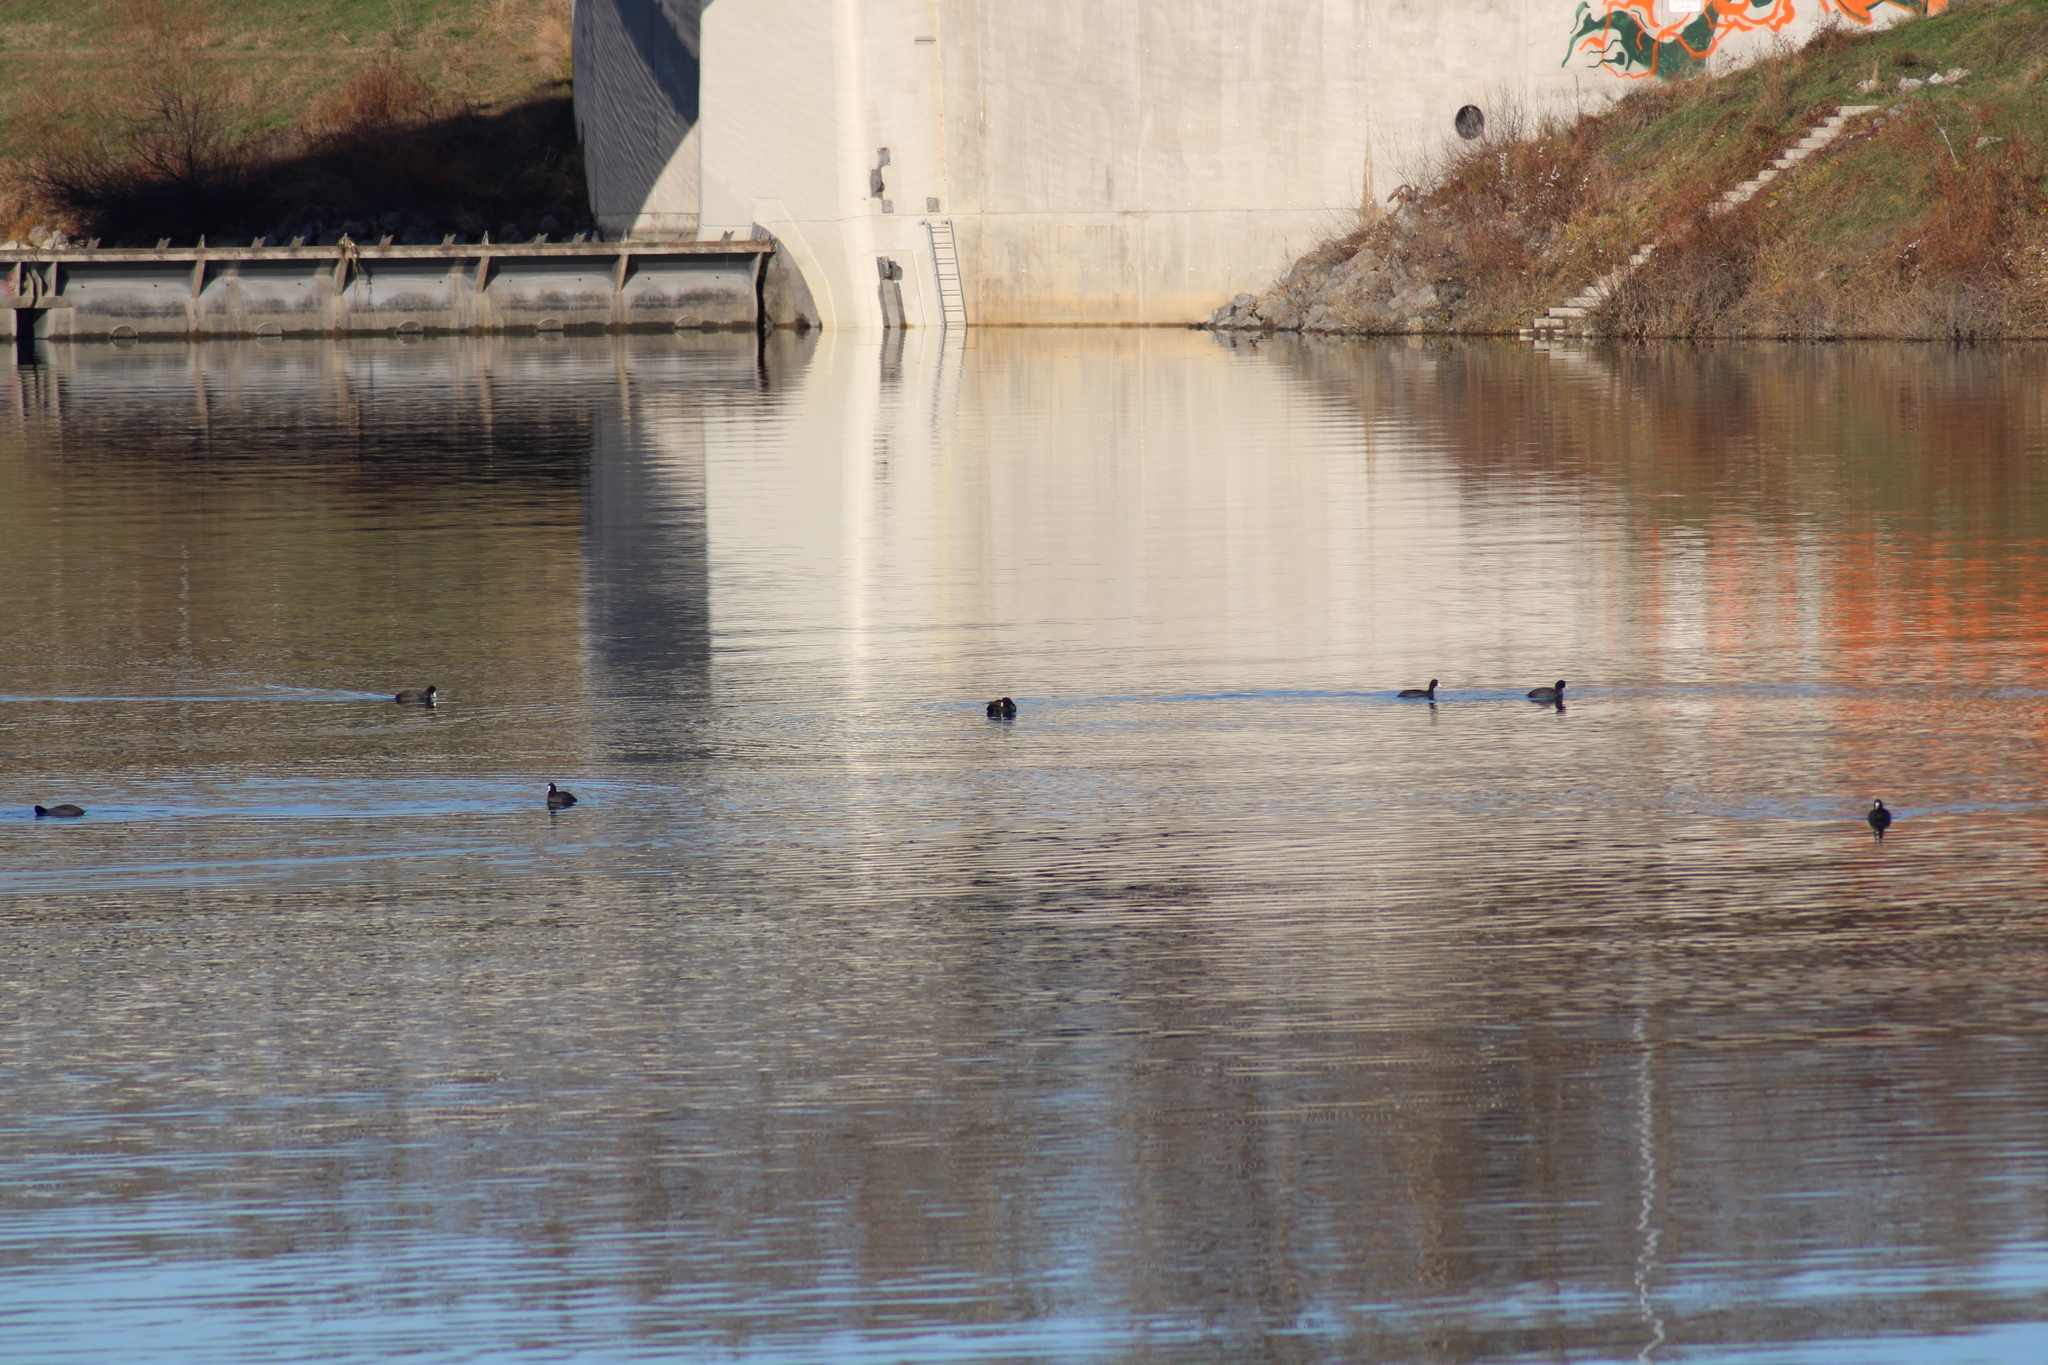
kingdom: Animalia
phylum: Chordata
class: Aves
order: Gruiformes
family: Rallidae
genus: Fulica
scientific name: Fulica atra
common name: Eurasian coot
